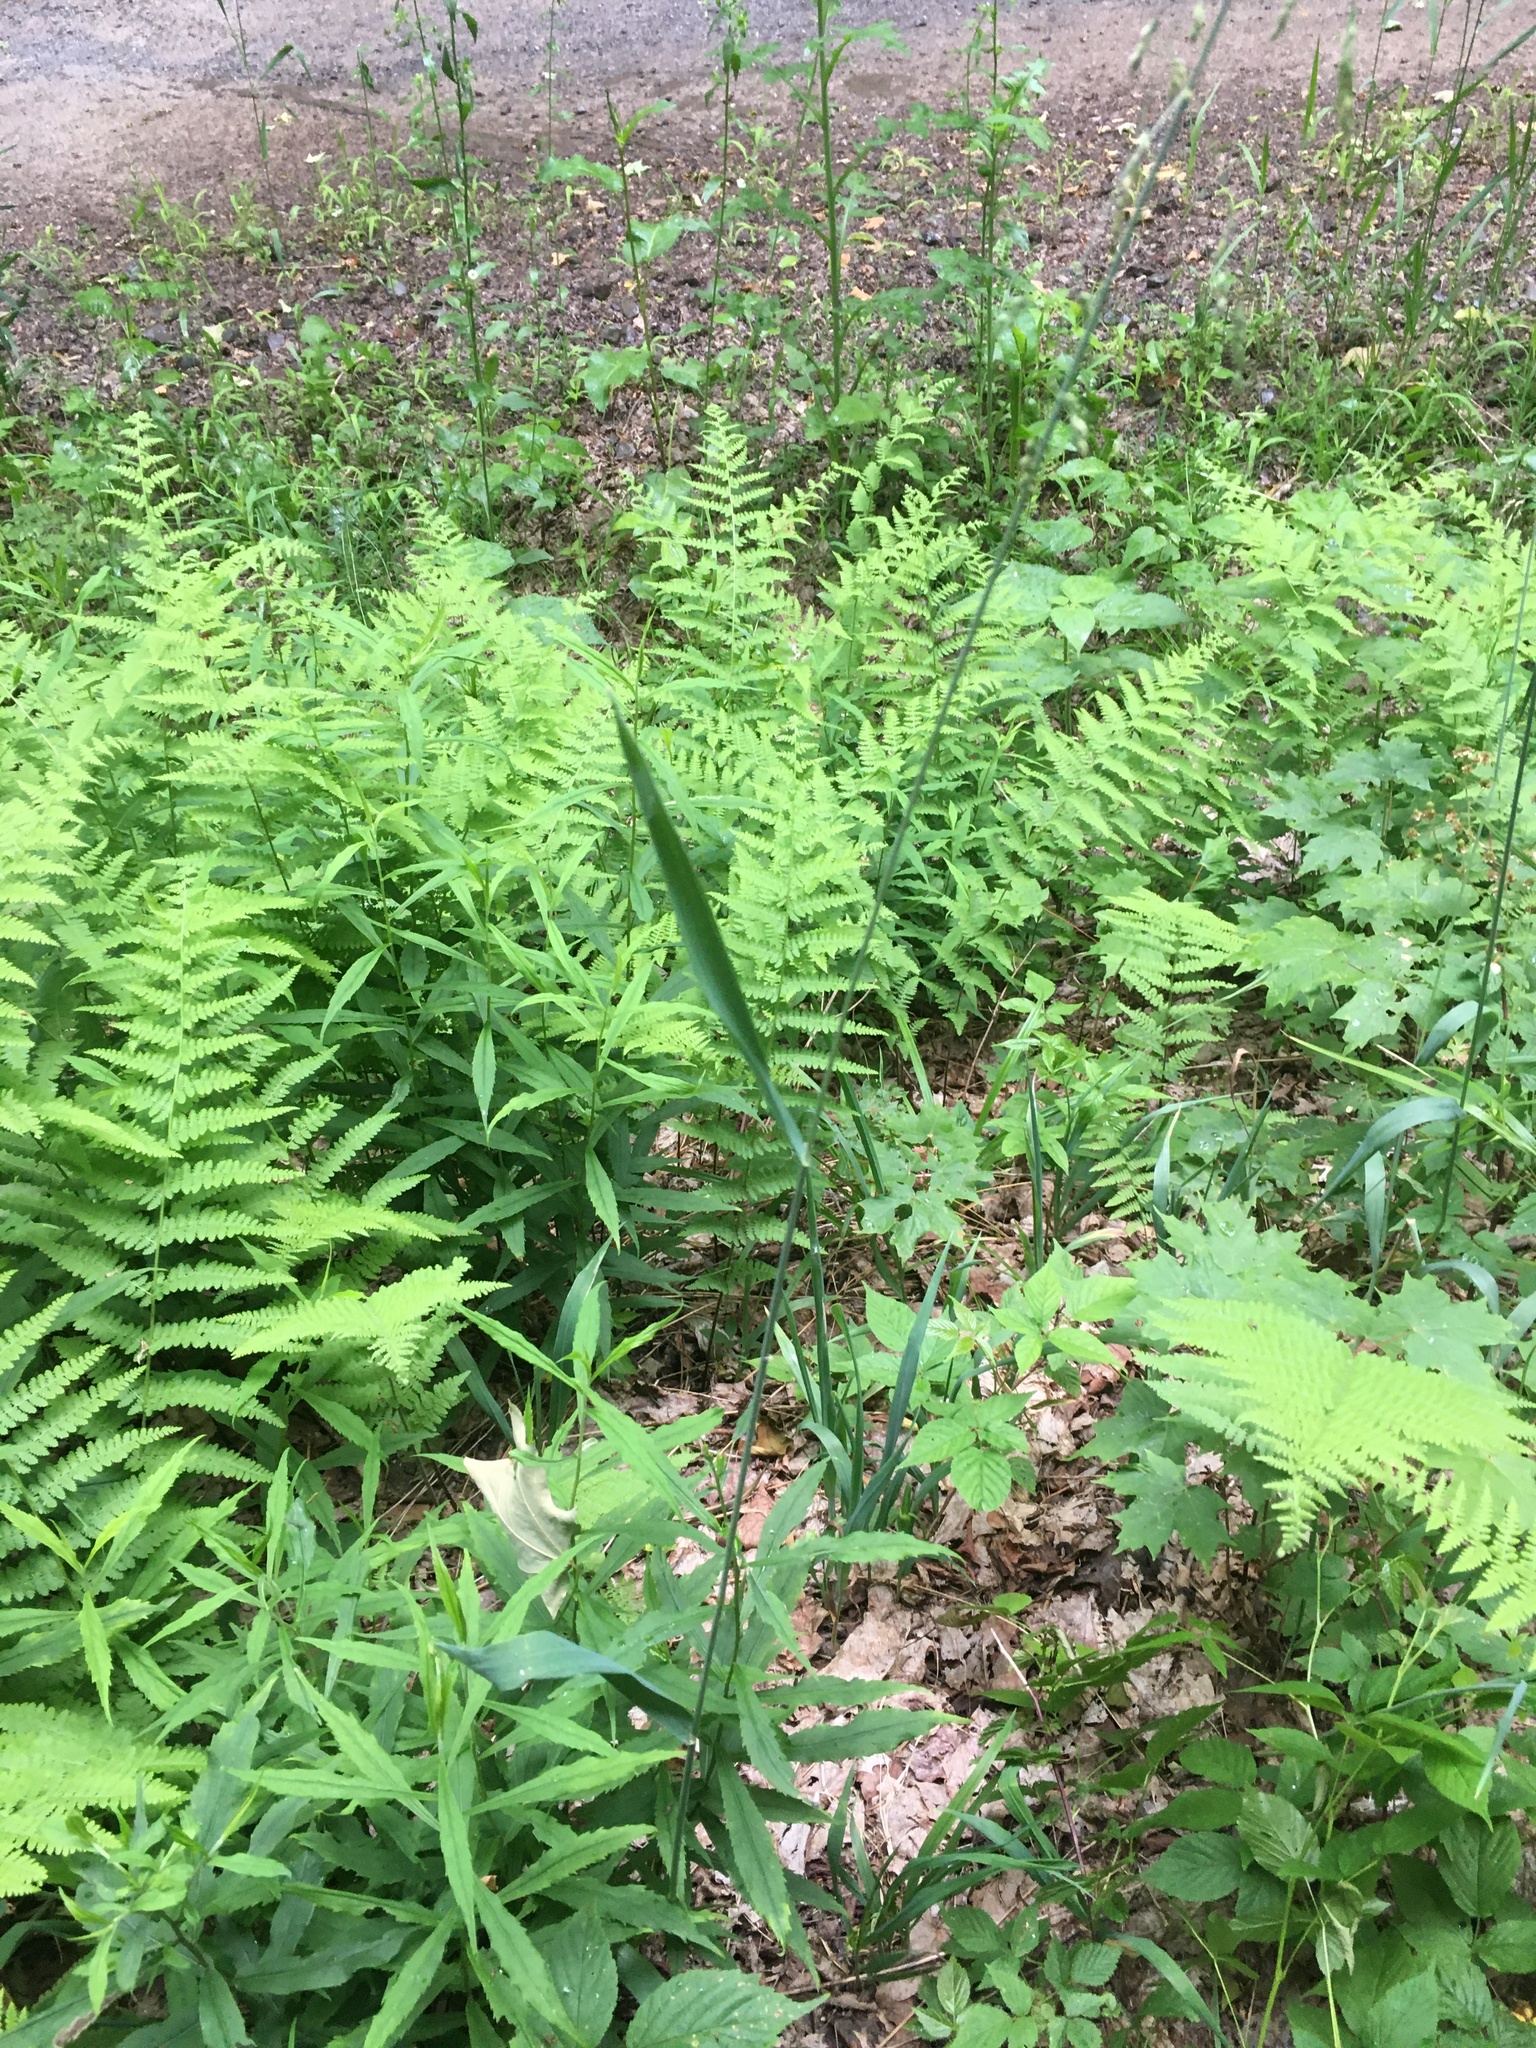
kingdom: Plantae
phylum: Tracheophyta
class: Liliopsida
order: Poales
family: Poaceae
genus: Milium
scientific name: Milium effusum
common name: Wood millet
